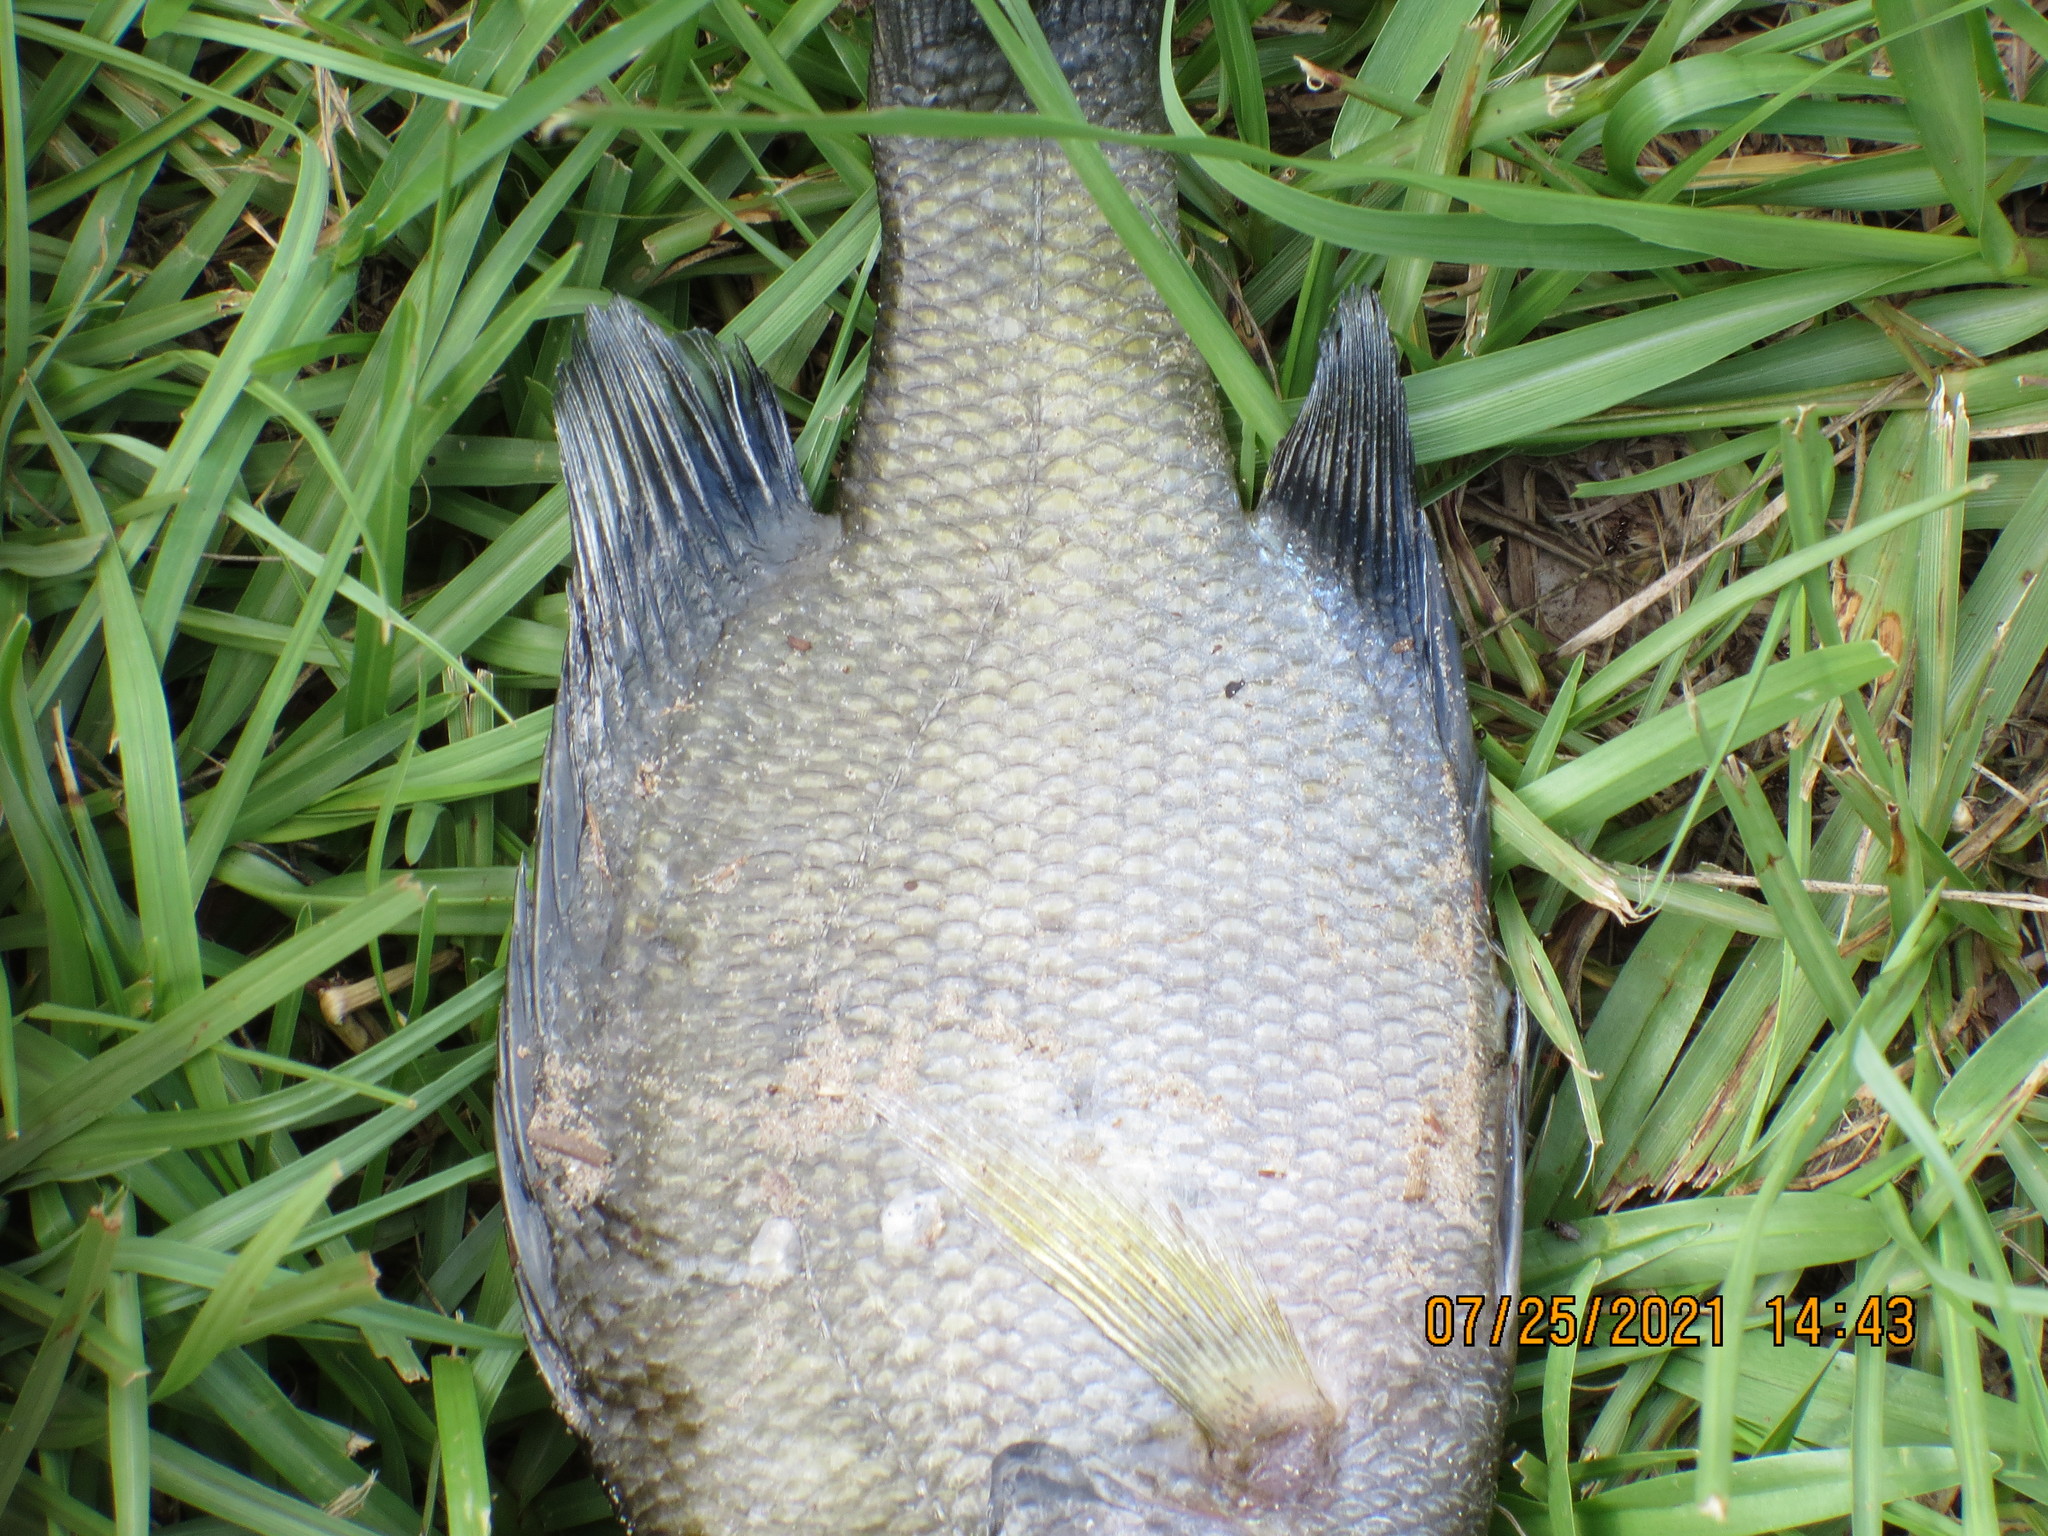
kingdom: Animalia
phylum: Chordata
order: Perciformes
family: Centrarchidae
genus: Lepomis
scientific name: Lepomis macrochirus
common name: Bluegill
